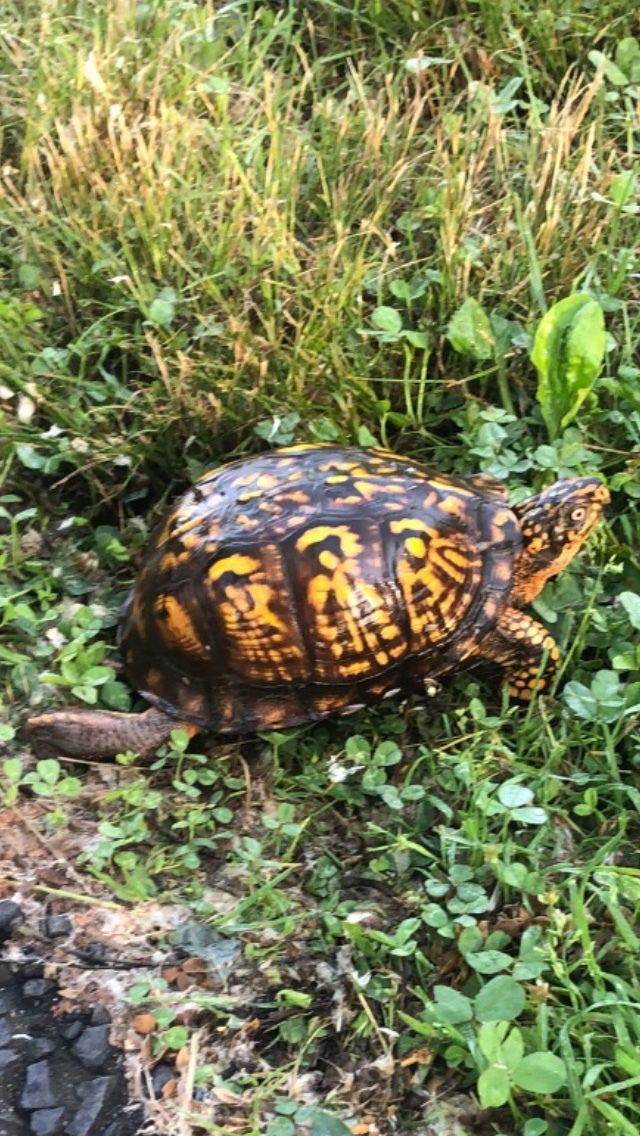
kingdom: Animalia
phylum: Chordata
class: Testudines
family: Emydidae
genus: Terrapene
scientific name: Terrapene carolina
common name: Common box turtle
